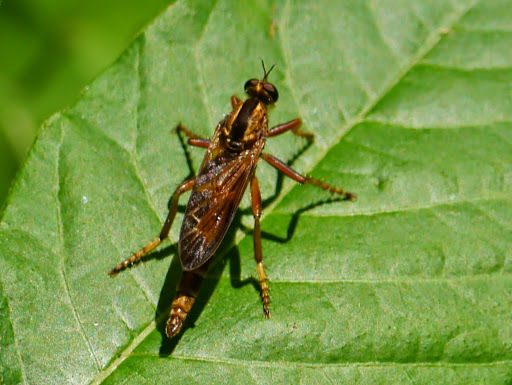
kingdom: Animalia
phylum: Arthropoda
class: Insecta
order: Diptera
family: Asilidae
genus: Asilus
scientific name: Asilus sericeus
